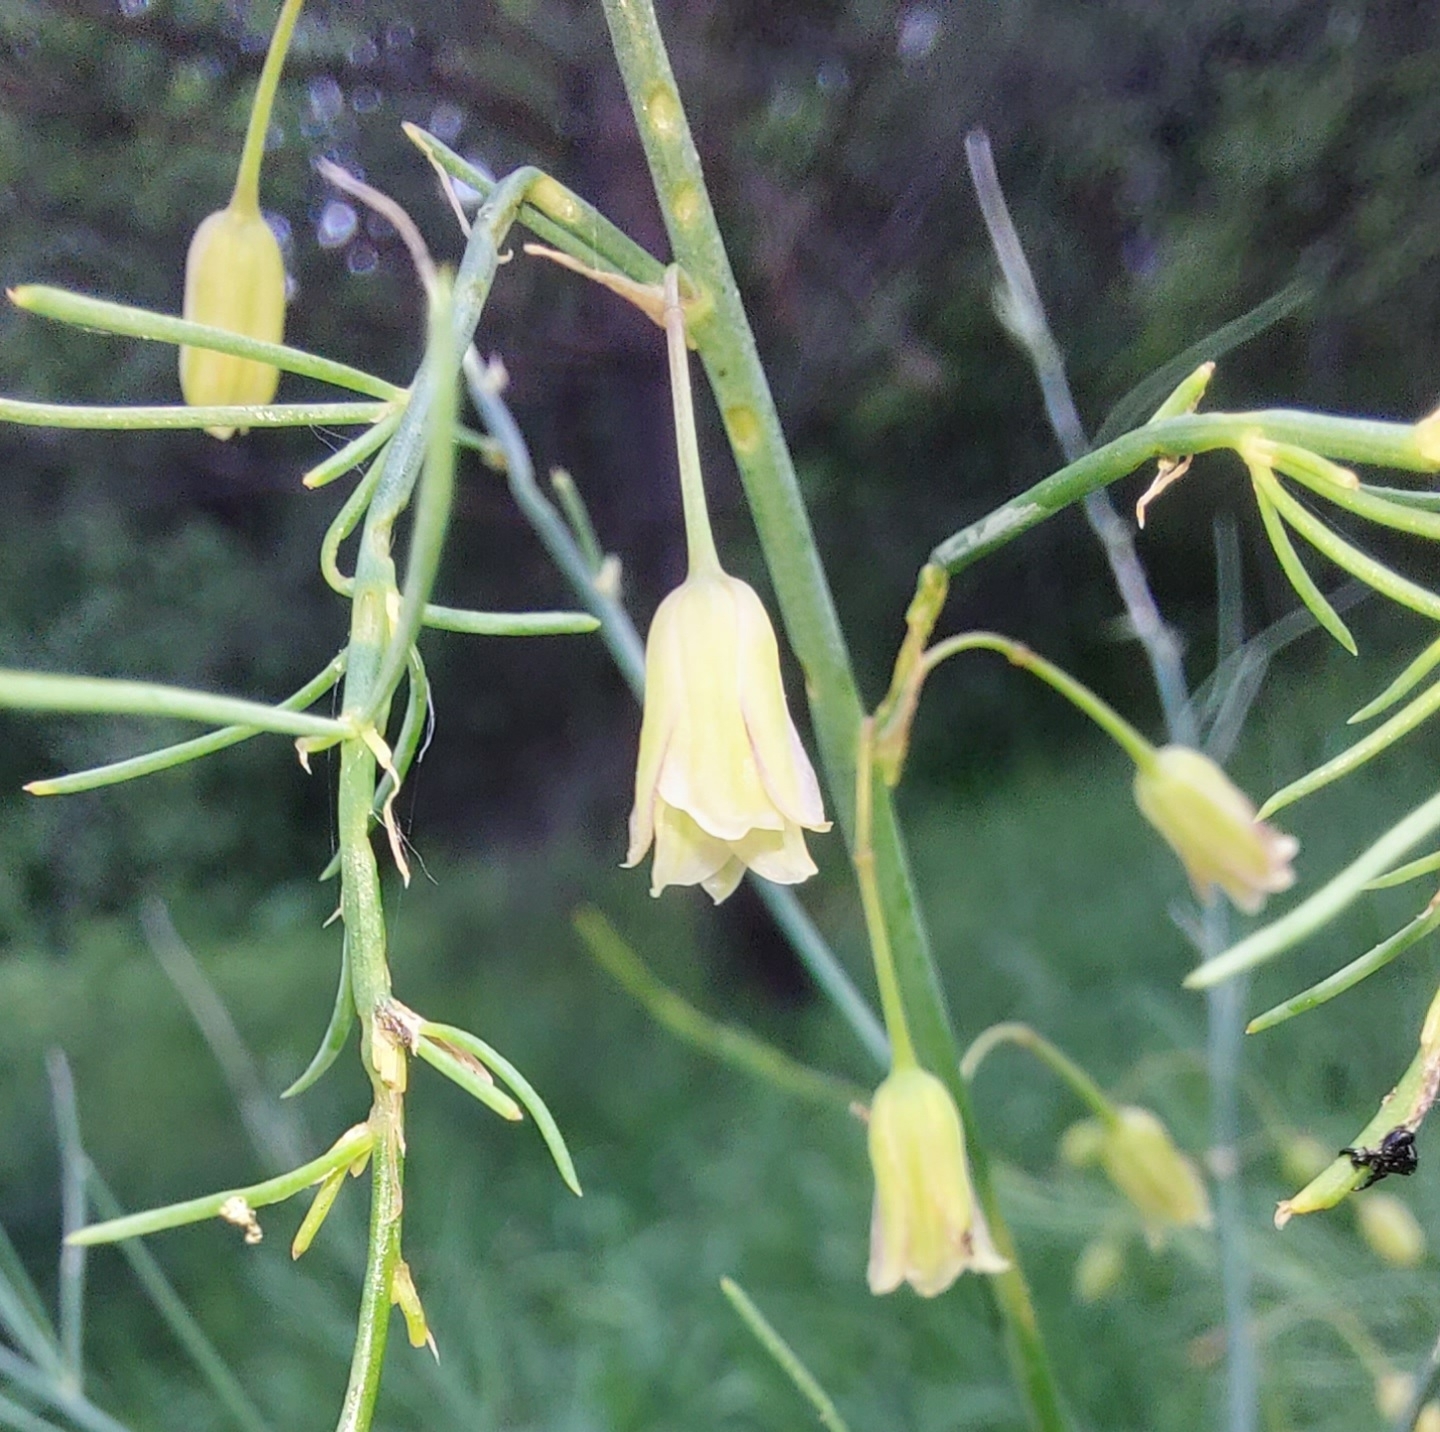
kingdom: Plantae
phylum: Tracheophyta
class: Liliopsida
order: Asparagales
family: Asparagaceae
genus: Asparagus
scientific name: Asparagus officinalis
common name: Garden asparagus
